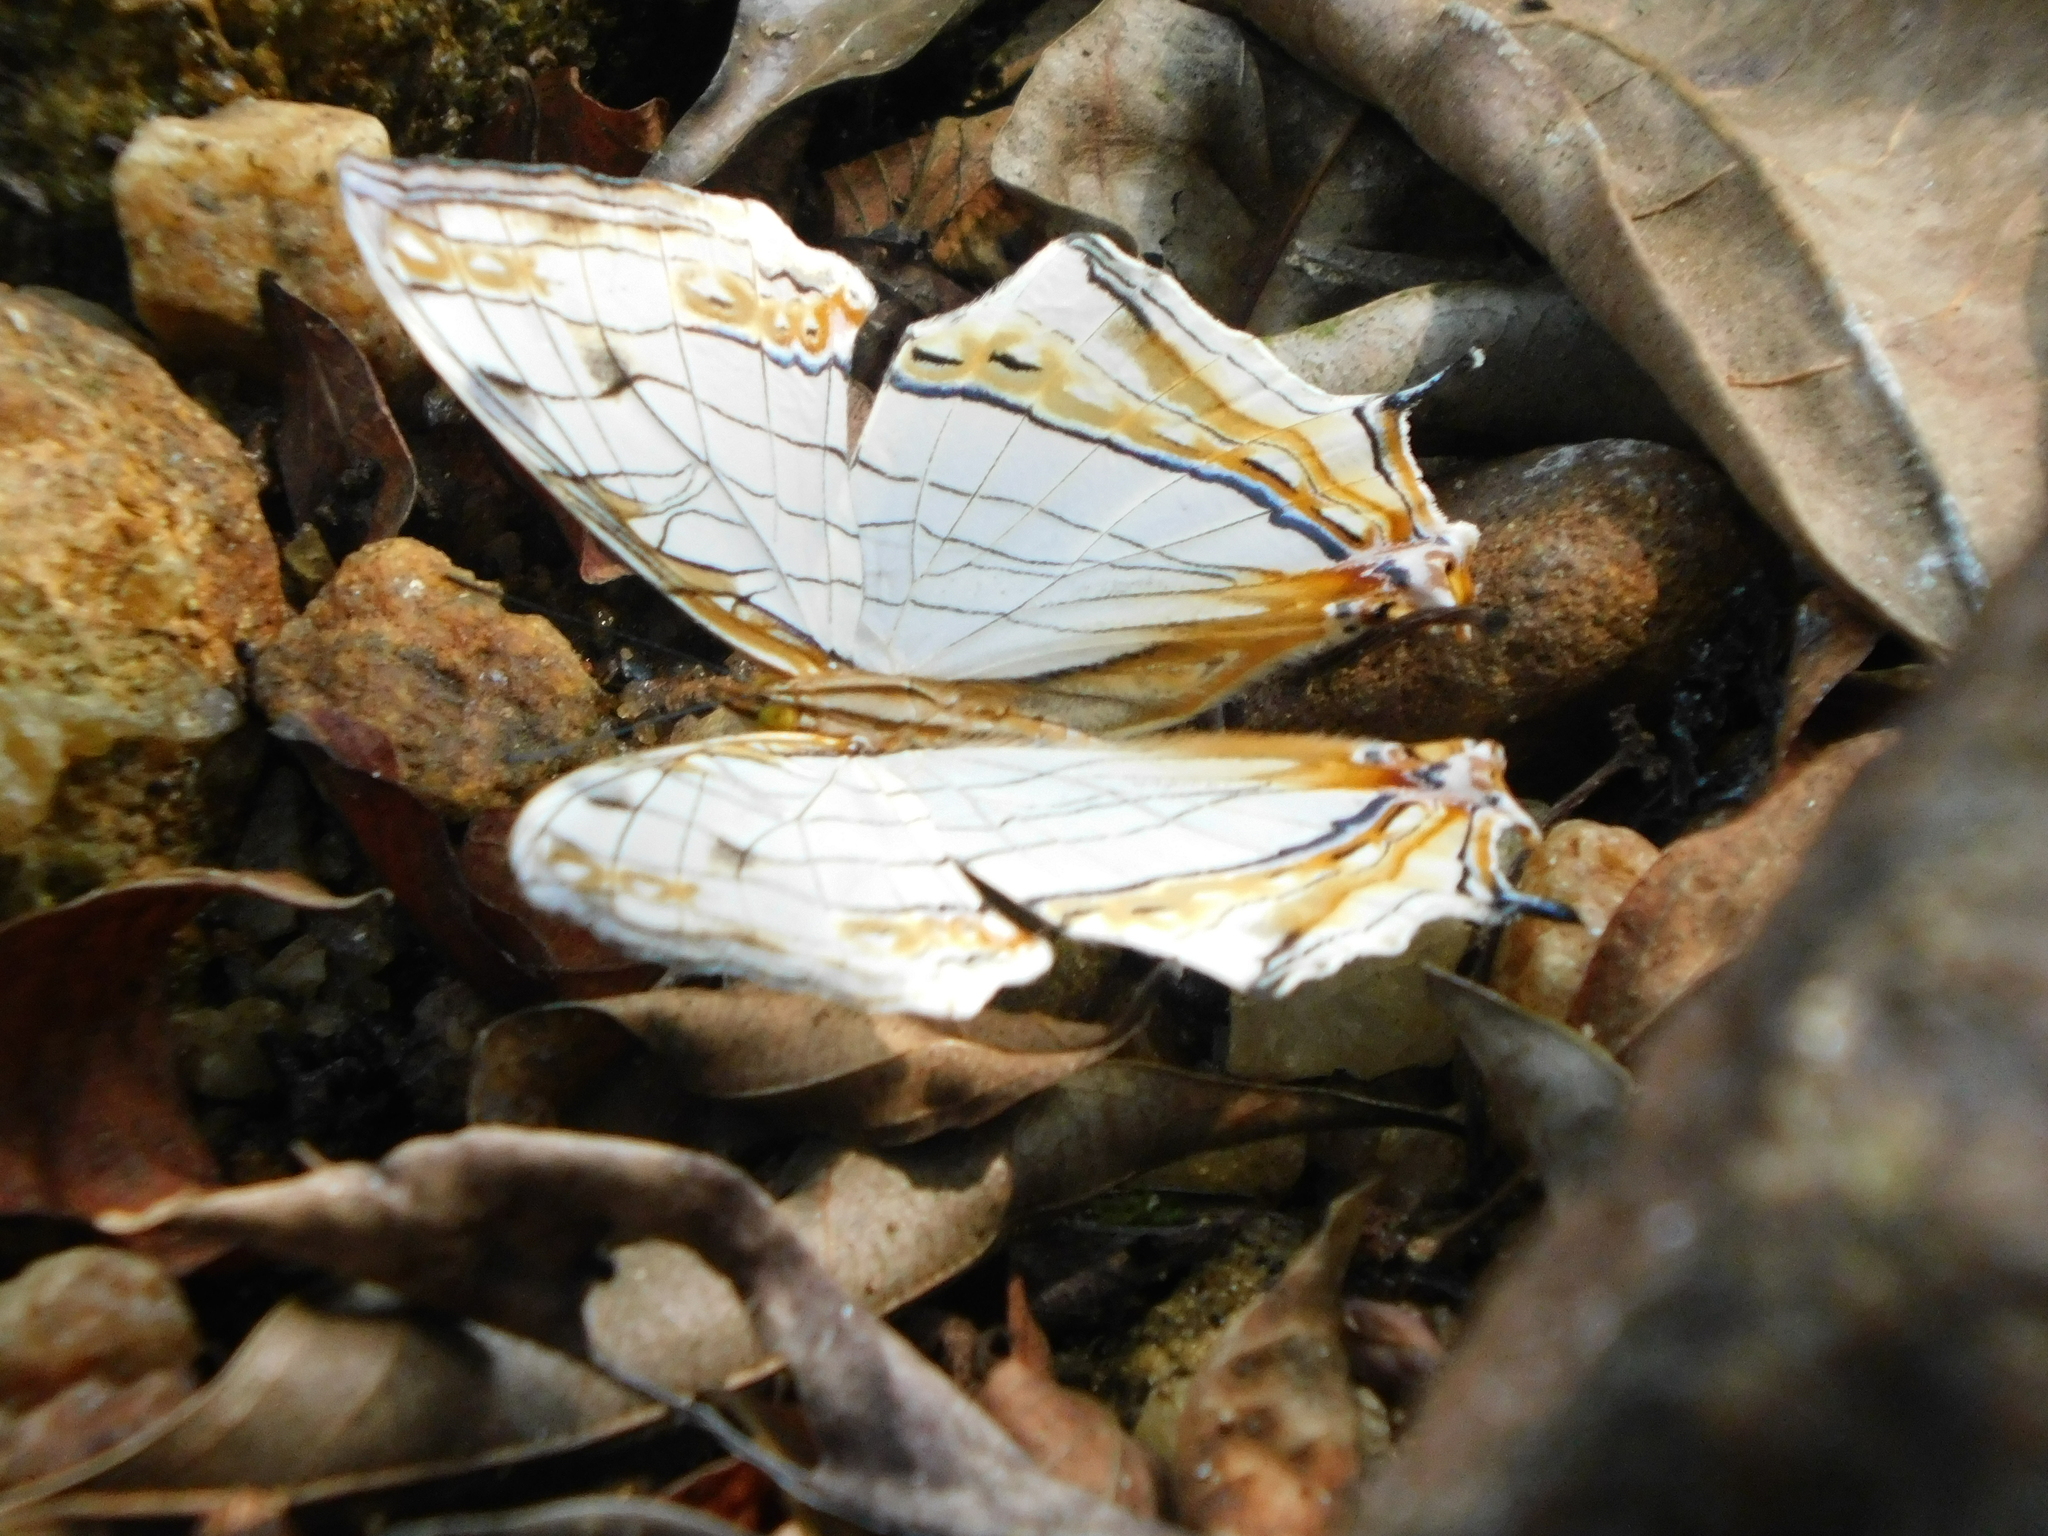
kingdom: Animalia
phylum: Arthropoda
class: Insecta
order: Lepidoptera
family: Nymphalidae
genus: Cyrestis
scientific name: Cyrestis thyodamas
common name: Common mapwing
